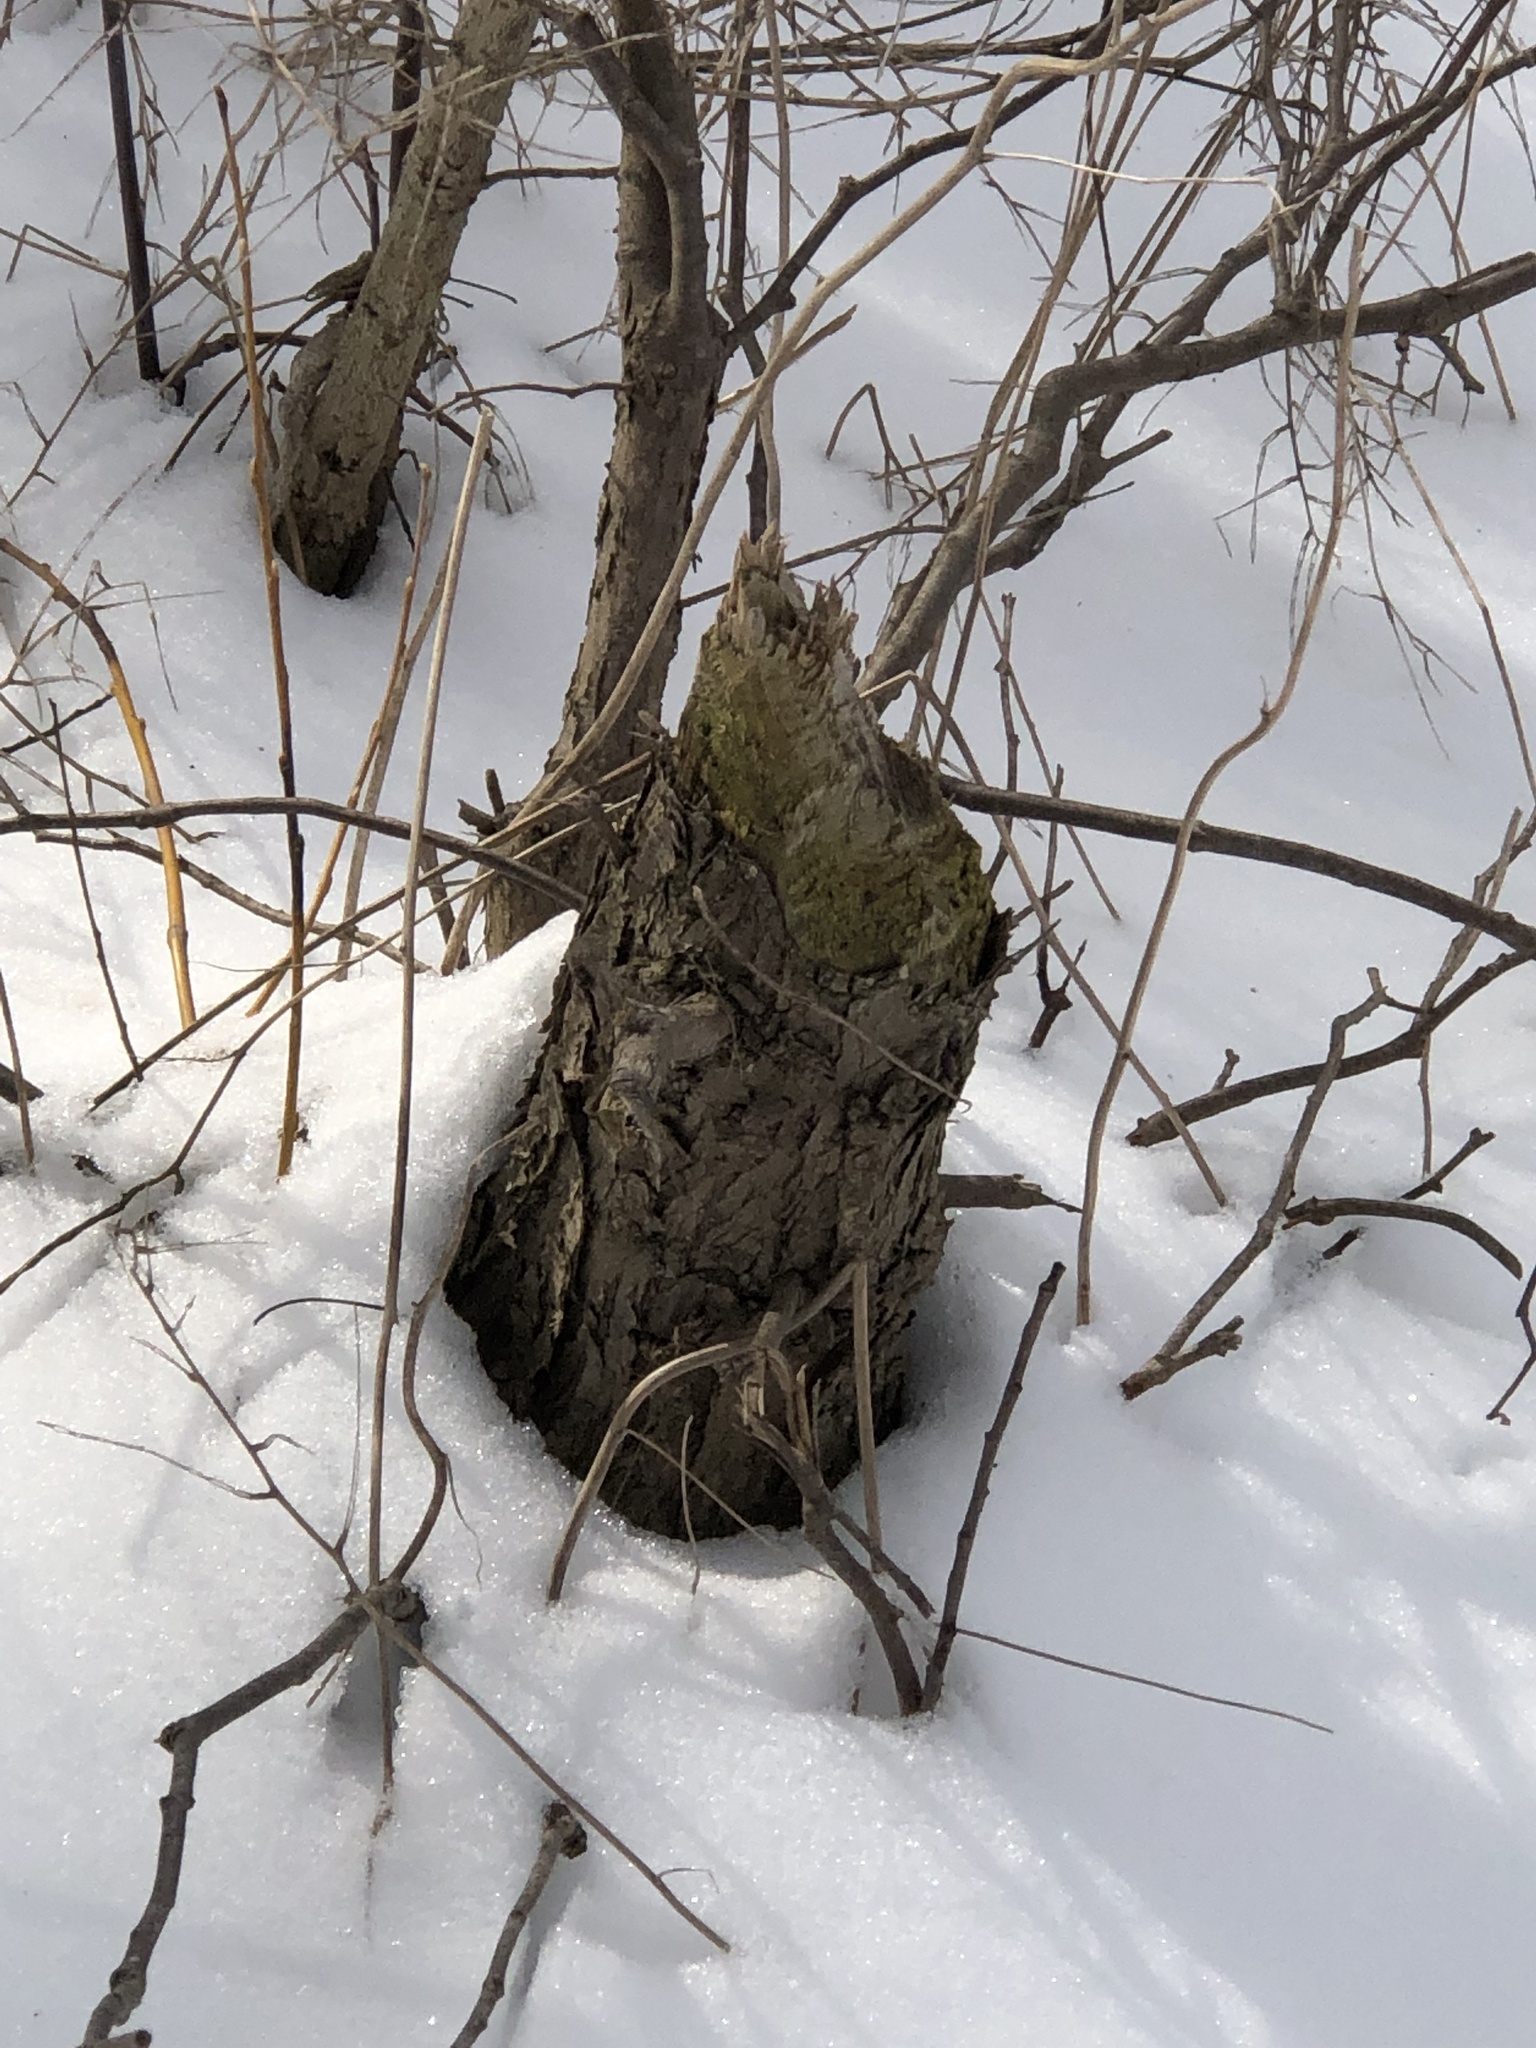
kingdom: Animalia
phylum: Chordata
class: Mammalia
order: Rodentia
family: Castoridae
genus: Castor
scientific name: Castor canadensis
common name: American beaver
